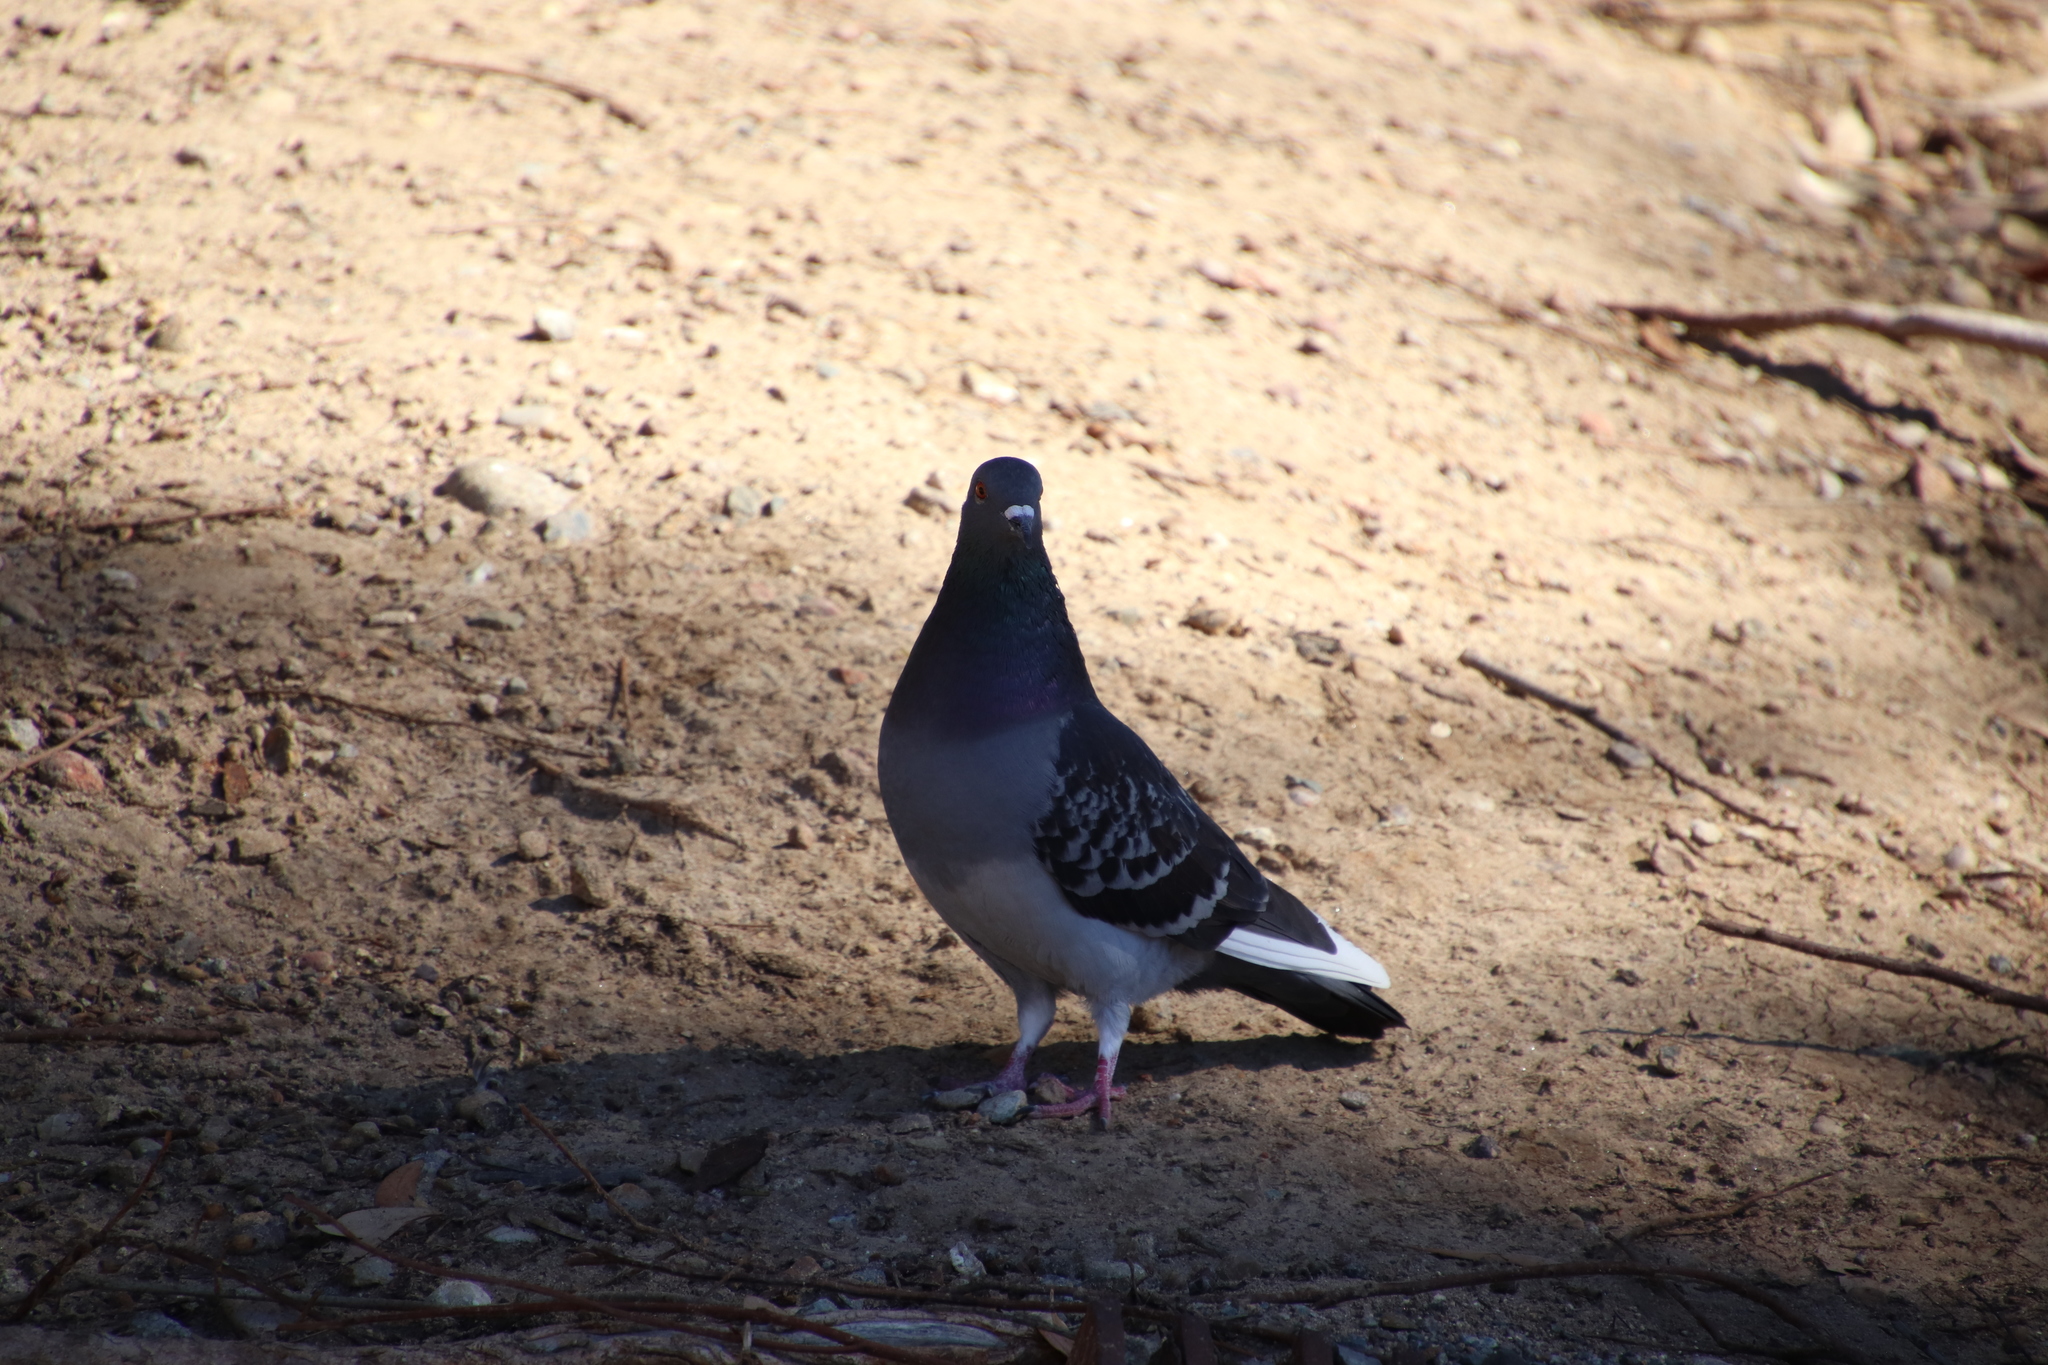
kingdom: Animalia
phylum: Chordata
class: Aves
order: Columbiformes
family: Columbidae
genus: Columba
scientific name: Columba livia
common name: Rock pigeon
